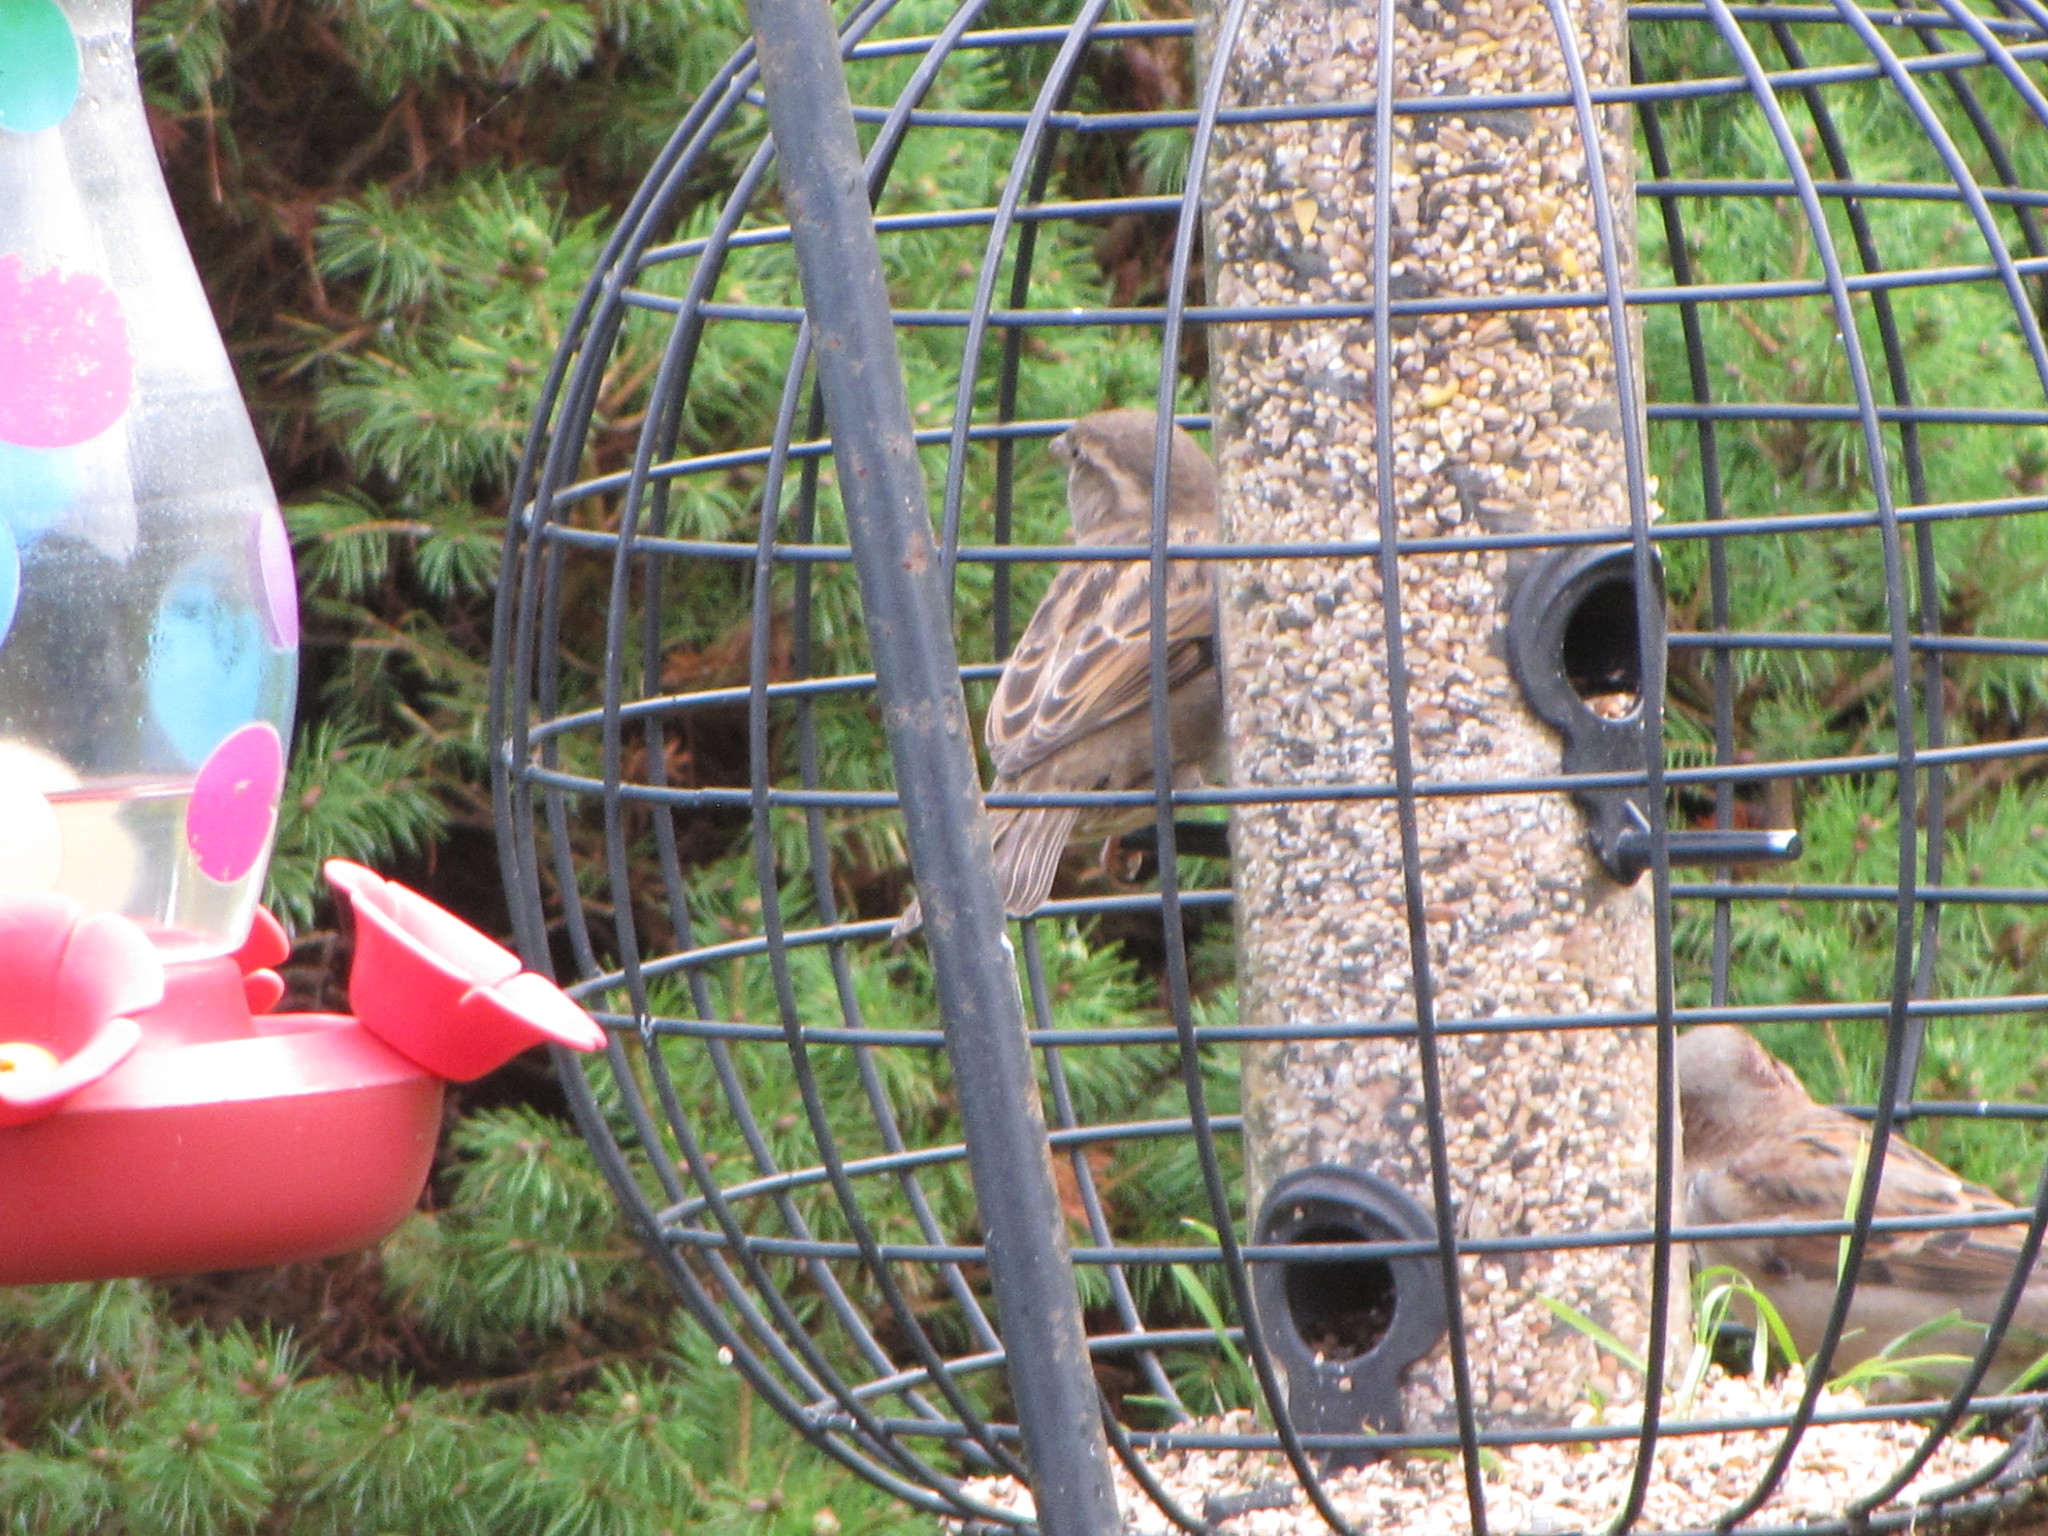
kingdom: Animalia
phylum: Chordata
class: Aves
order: Passeriformes
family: Passeridae
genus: Passer
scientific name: Passer domesticus
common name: House sparrow
